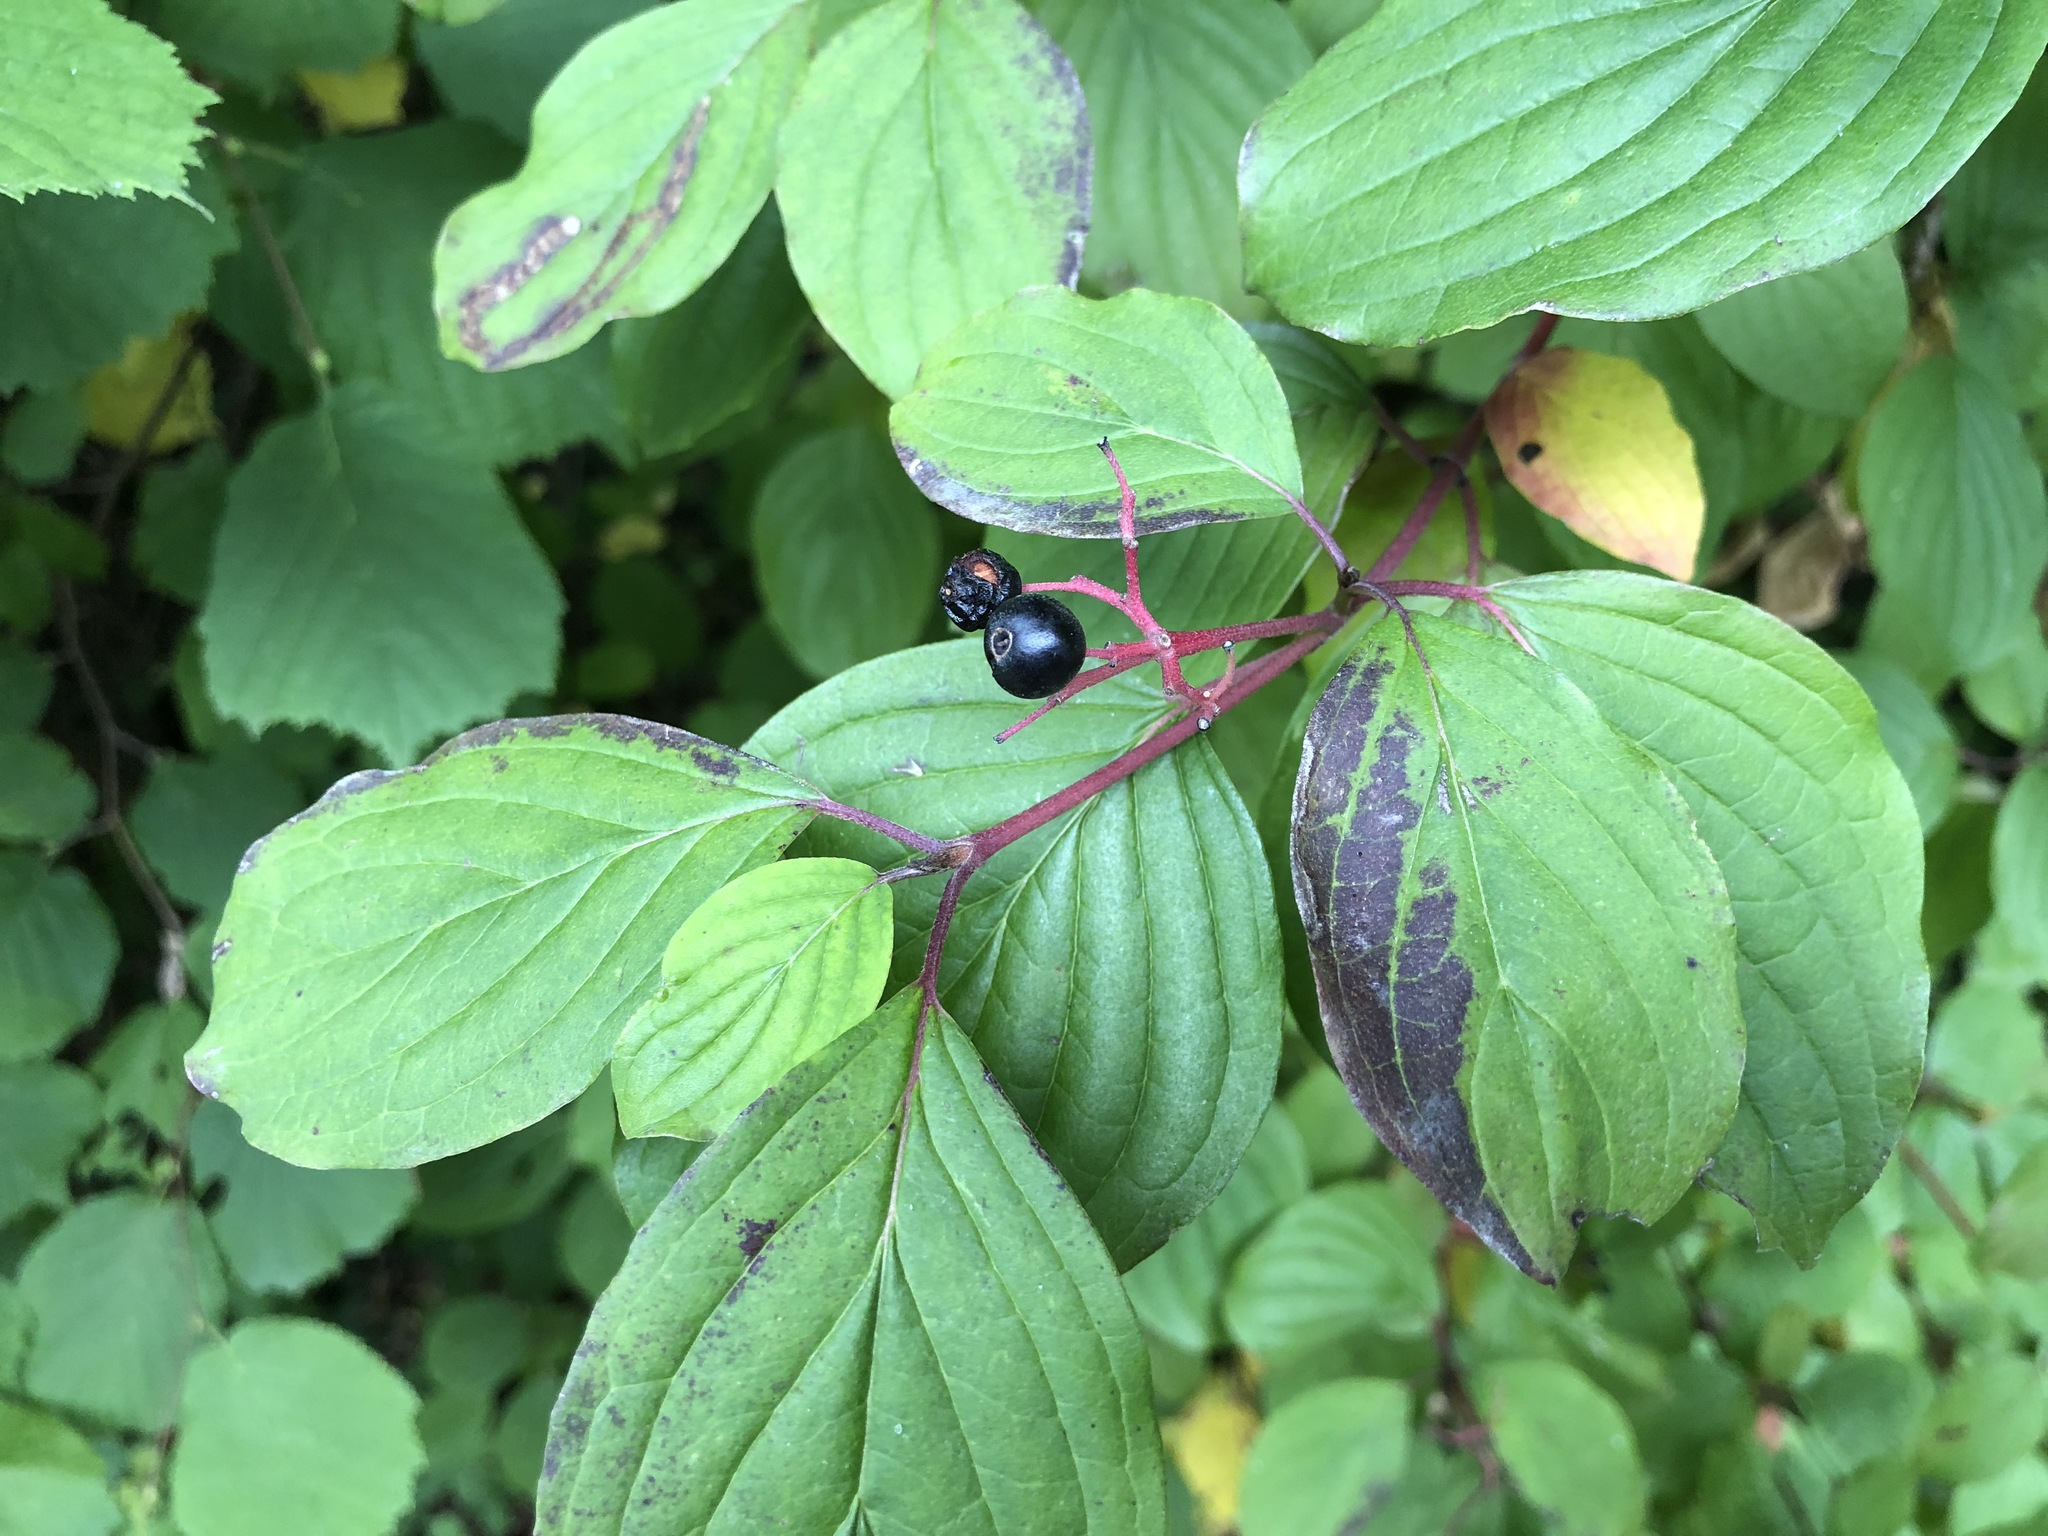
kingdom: Plantae
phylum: Tracheophyta
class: Magnoliopsida
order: Cornales
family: Cornaceae
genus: Cornus
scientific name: Cornus sanguinea
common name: Dogwood
